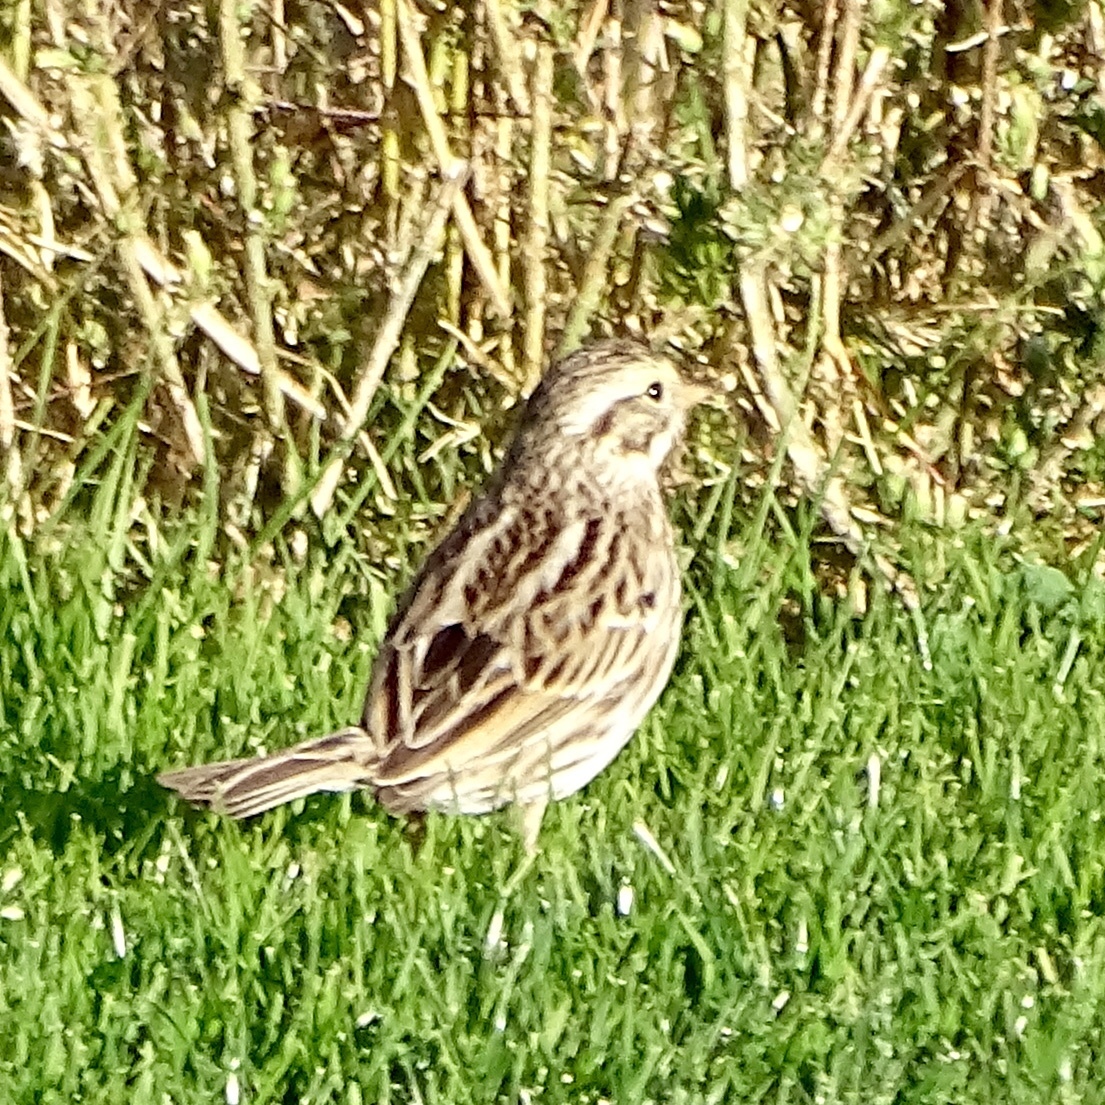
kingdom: Animalia
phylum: Chordata
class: Aves
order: Passeriformes
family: Passerellidae
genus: Passerculus
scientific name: Passerculus sandwichensis
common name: Savannah sparrow
